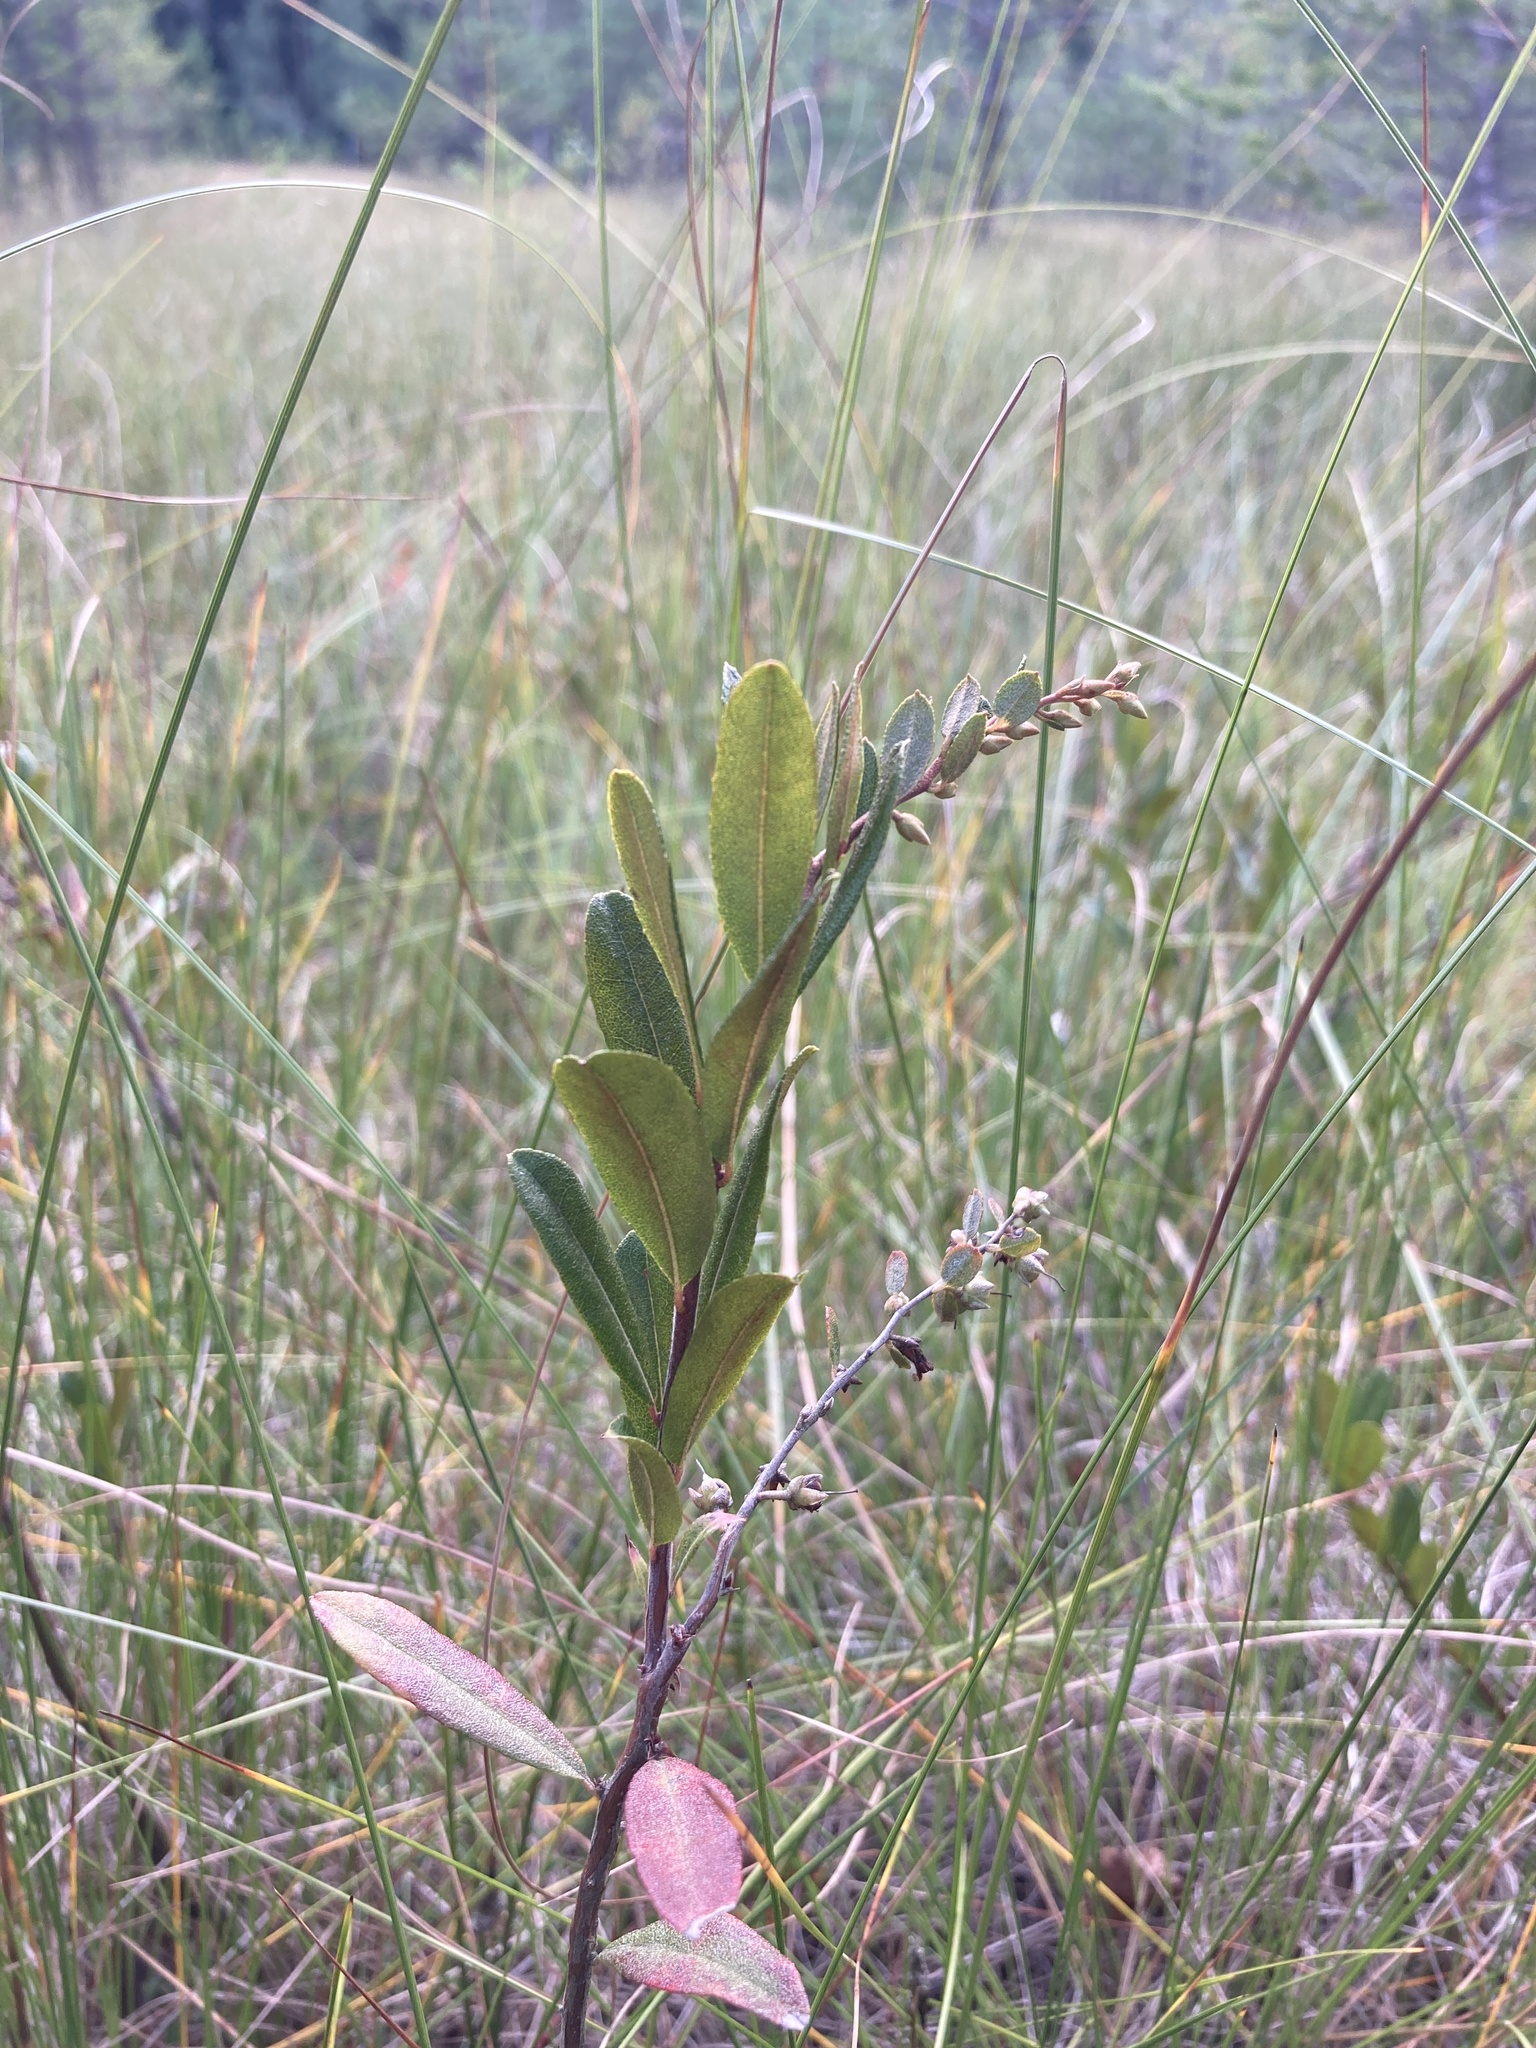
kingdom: Plantae
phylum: Tracheophyta
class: Magnoliopsida
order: Ericales
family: Ericaceae
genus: Chamaedaphne
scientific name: Chamaedaphne calyculata
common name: Leatherleaf
